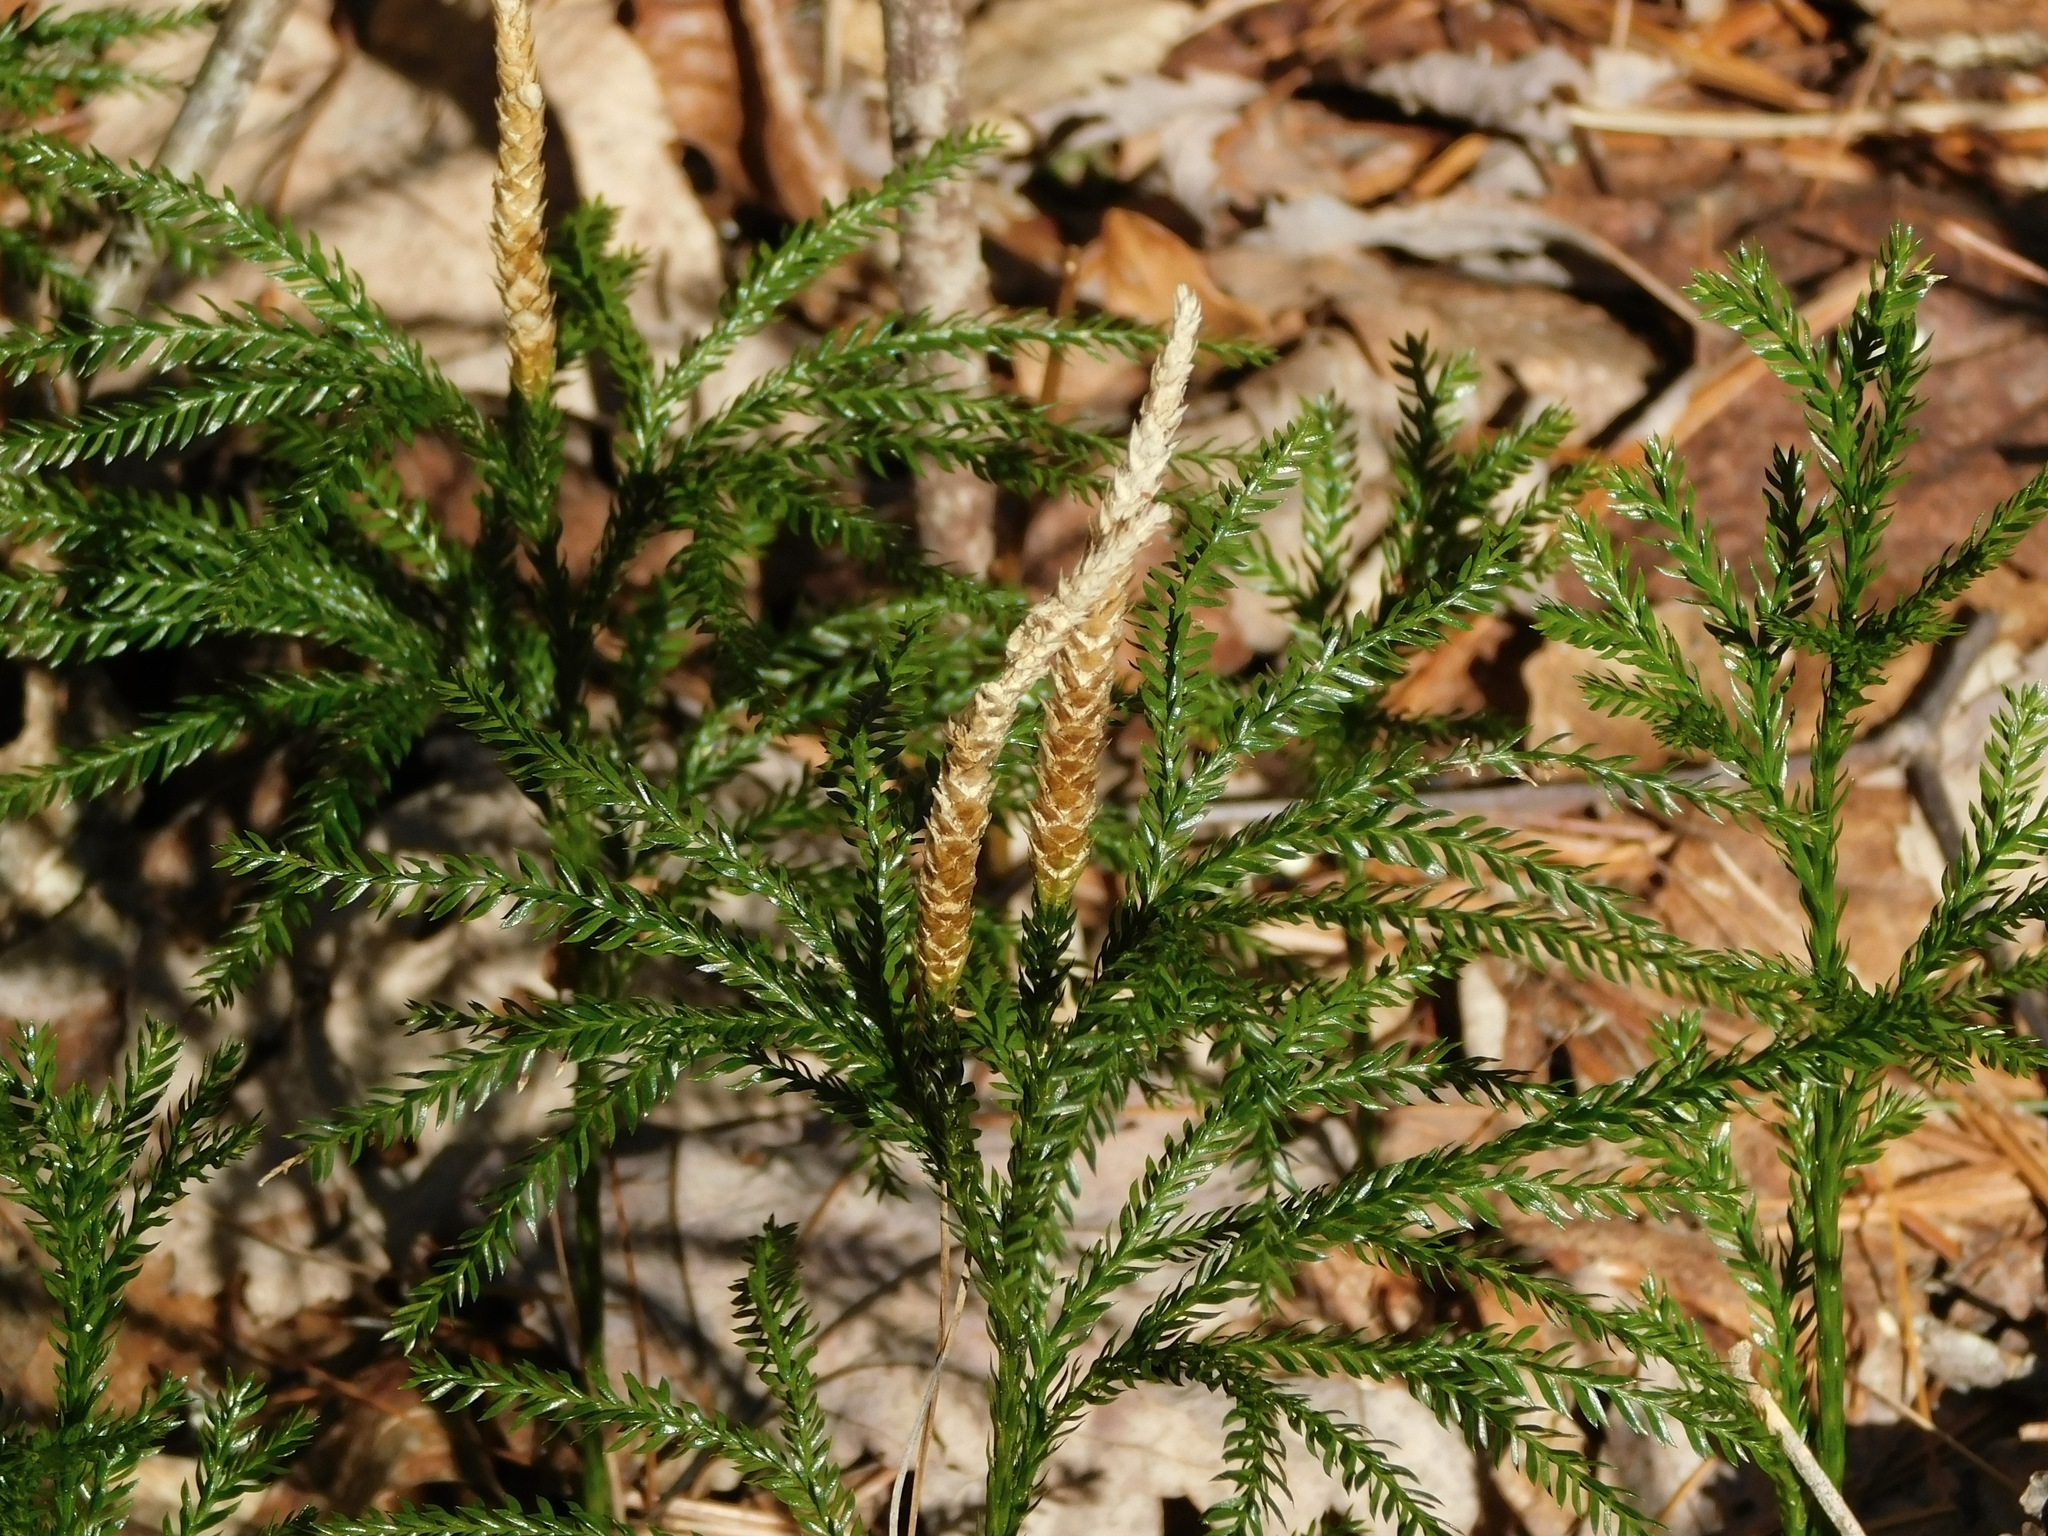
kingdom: Plantae
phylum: Tracheophyta
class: Lycopodiopsida
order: Lycopodiales
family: Lycopodiaceae
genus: Dendrolycopodium
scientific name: Dendrolycopodium obscurum
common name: Common ground-pine
